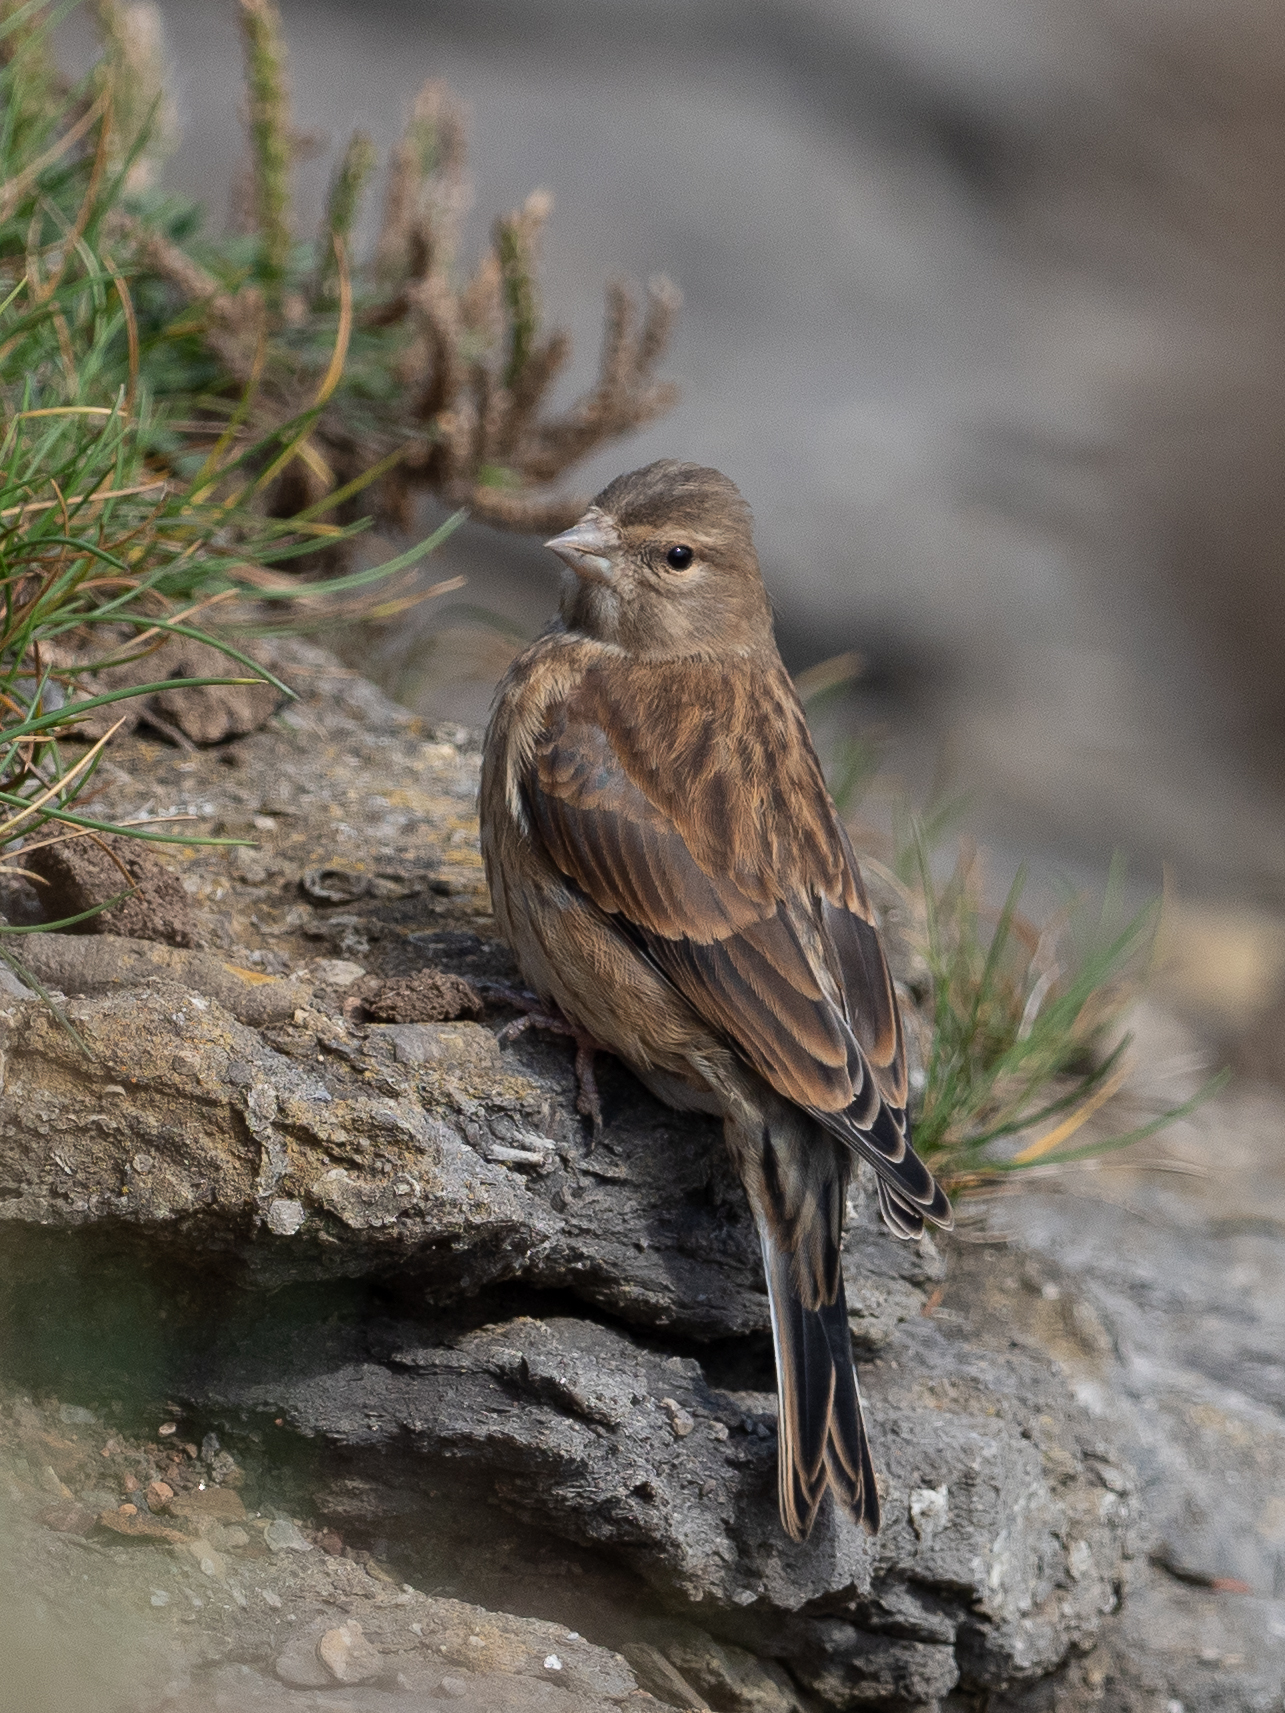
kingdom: Animalia
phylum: Chordata
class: Aves
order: Passeriformes
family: Fringillidae
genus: Linaria
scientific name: Linaria cannabina
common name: Common linnet
